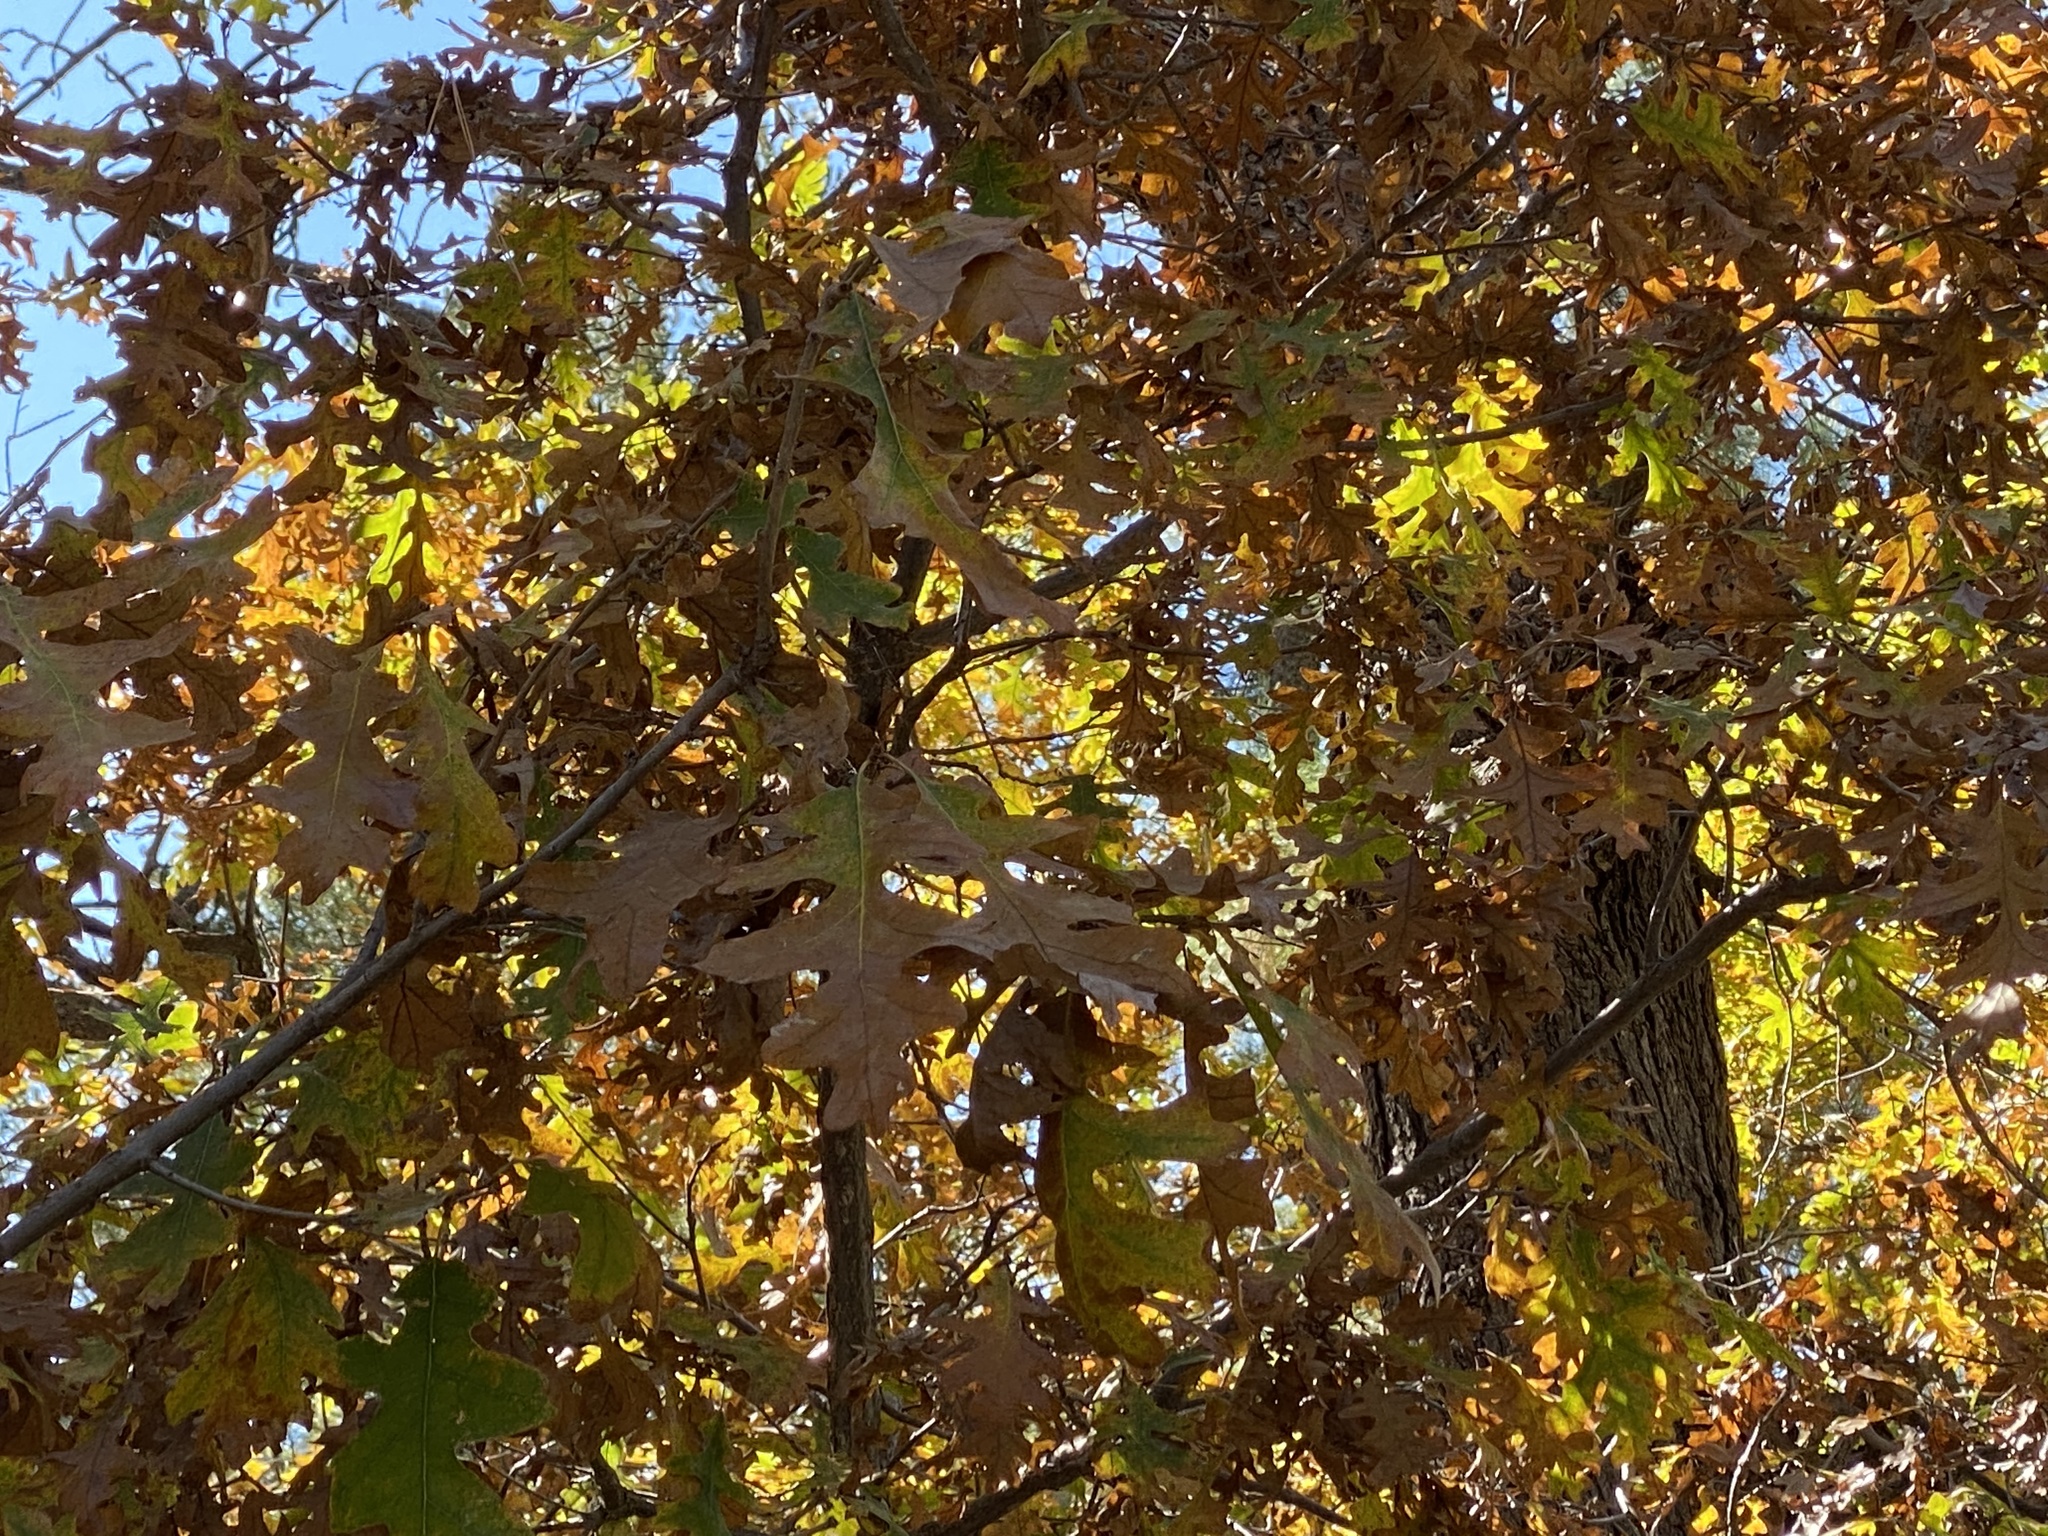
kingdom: Plantae
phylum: Tracheophyta
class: Magnoliopsida
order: Fagales
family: Fagaceae
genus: Quercus
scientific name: Quercus gambelii
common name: Gambel oak
